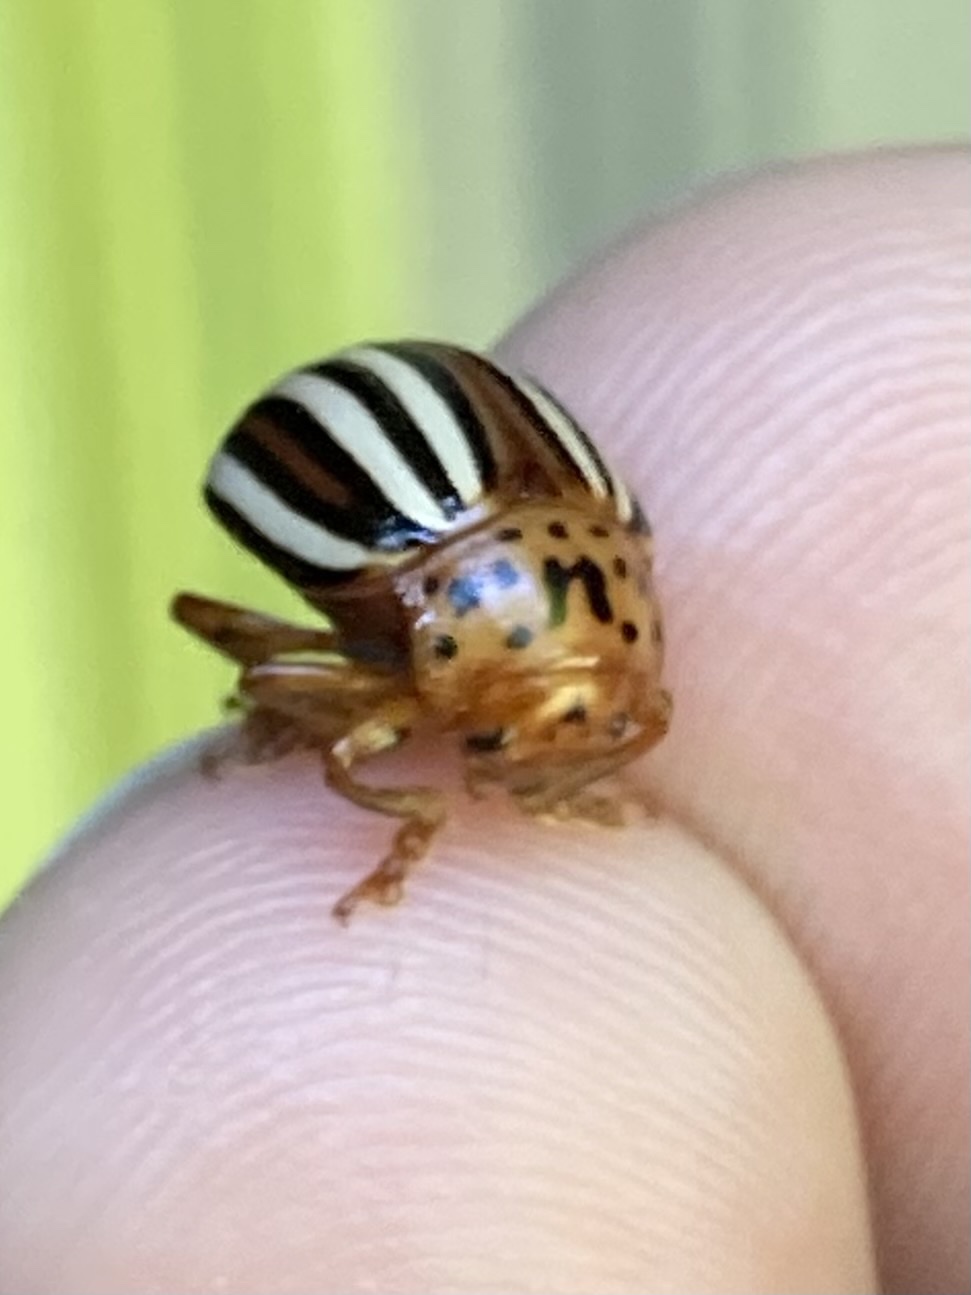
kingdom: Animalia
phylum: Arthropoda
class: Insecta
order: Coleoptera
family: Chrysomelidae
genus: Leptinotarsa
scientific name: Leptinotarsa juncta
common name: False potato beetle
